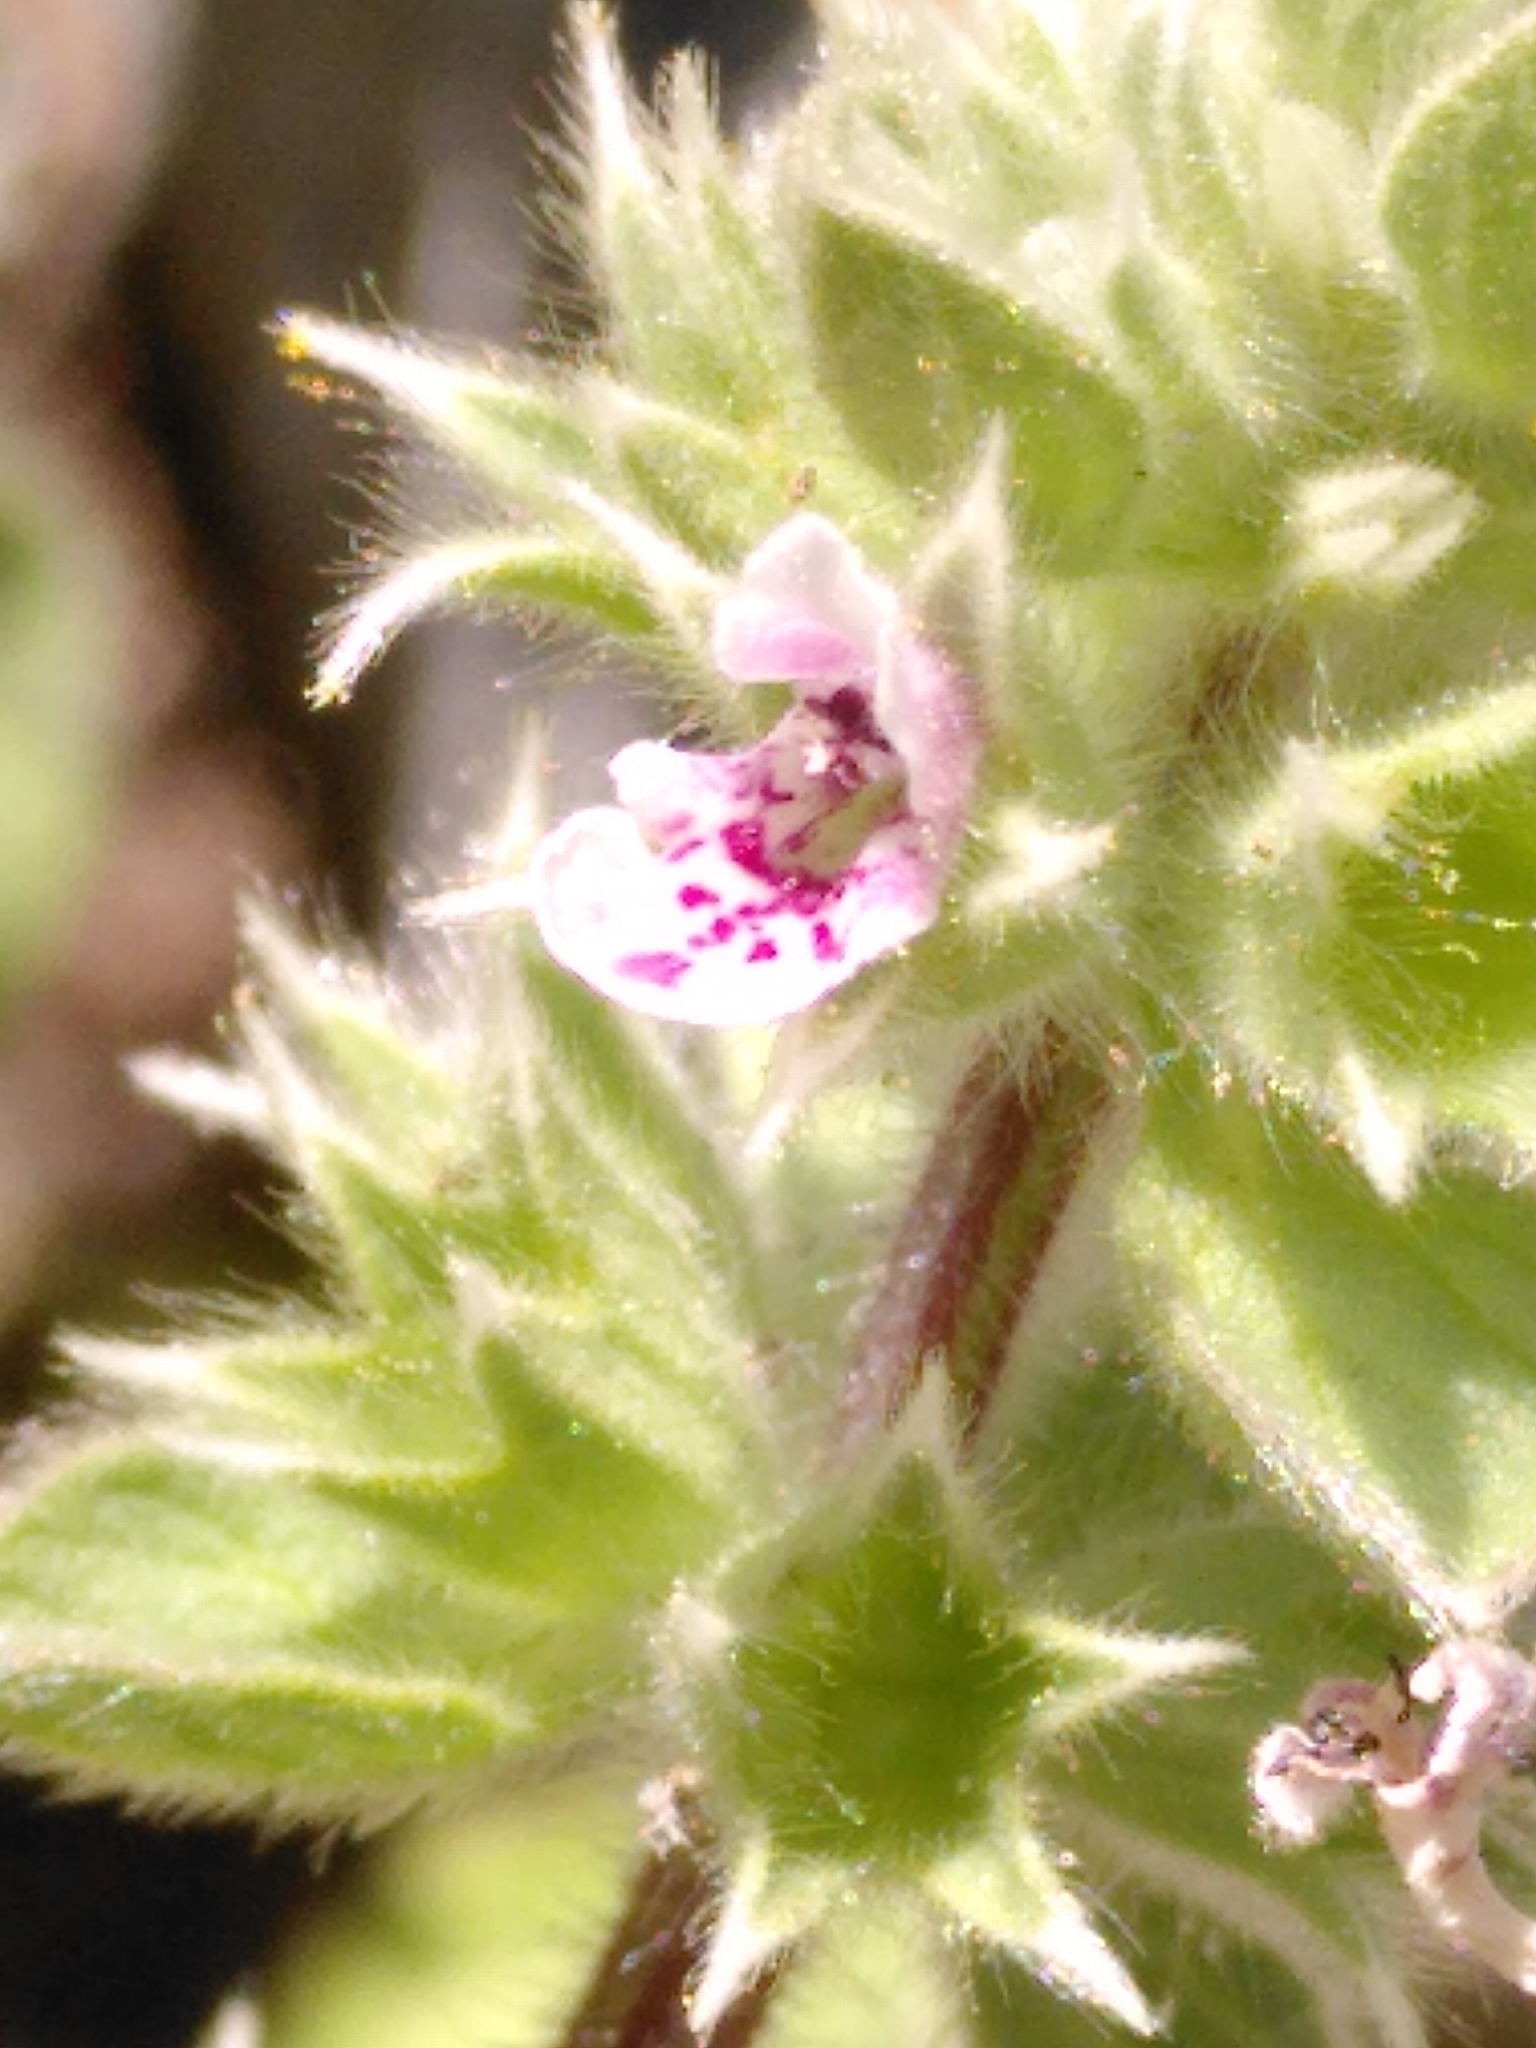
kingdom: Plantae
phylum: Tracheophyta
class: Magnoliopsida
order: Lamiales
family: Lamiaceae
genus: Stachys
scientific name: Stachys brachyclada
